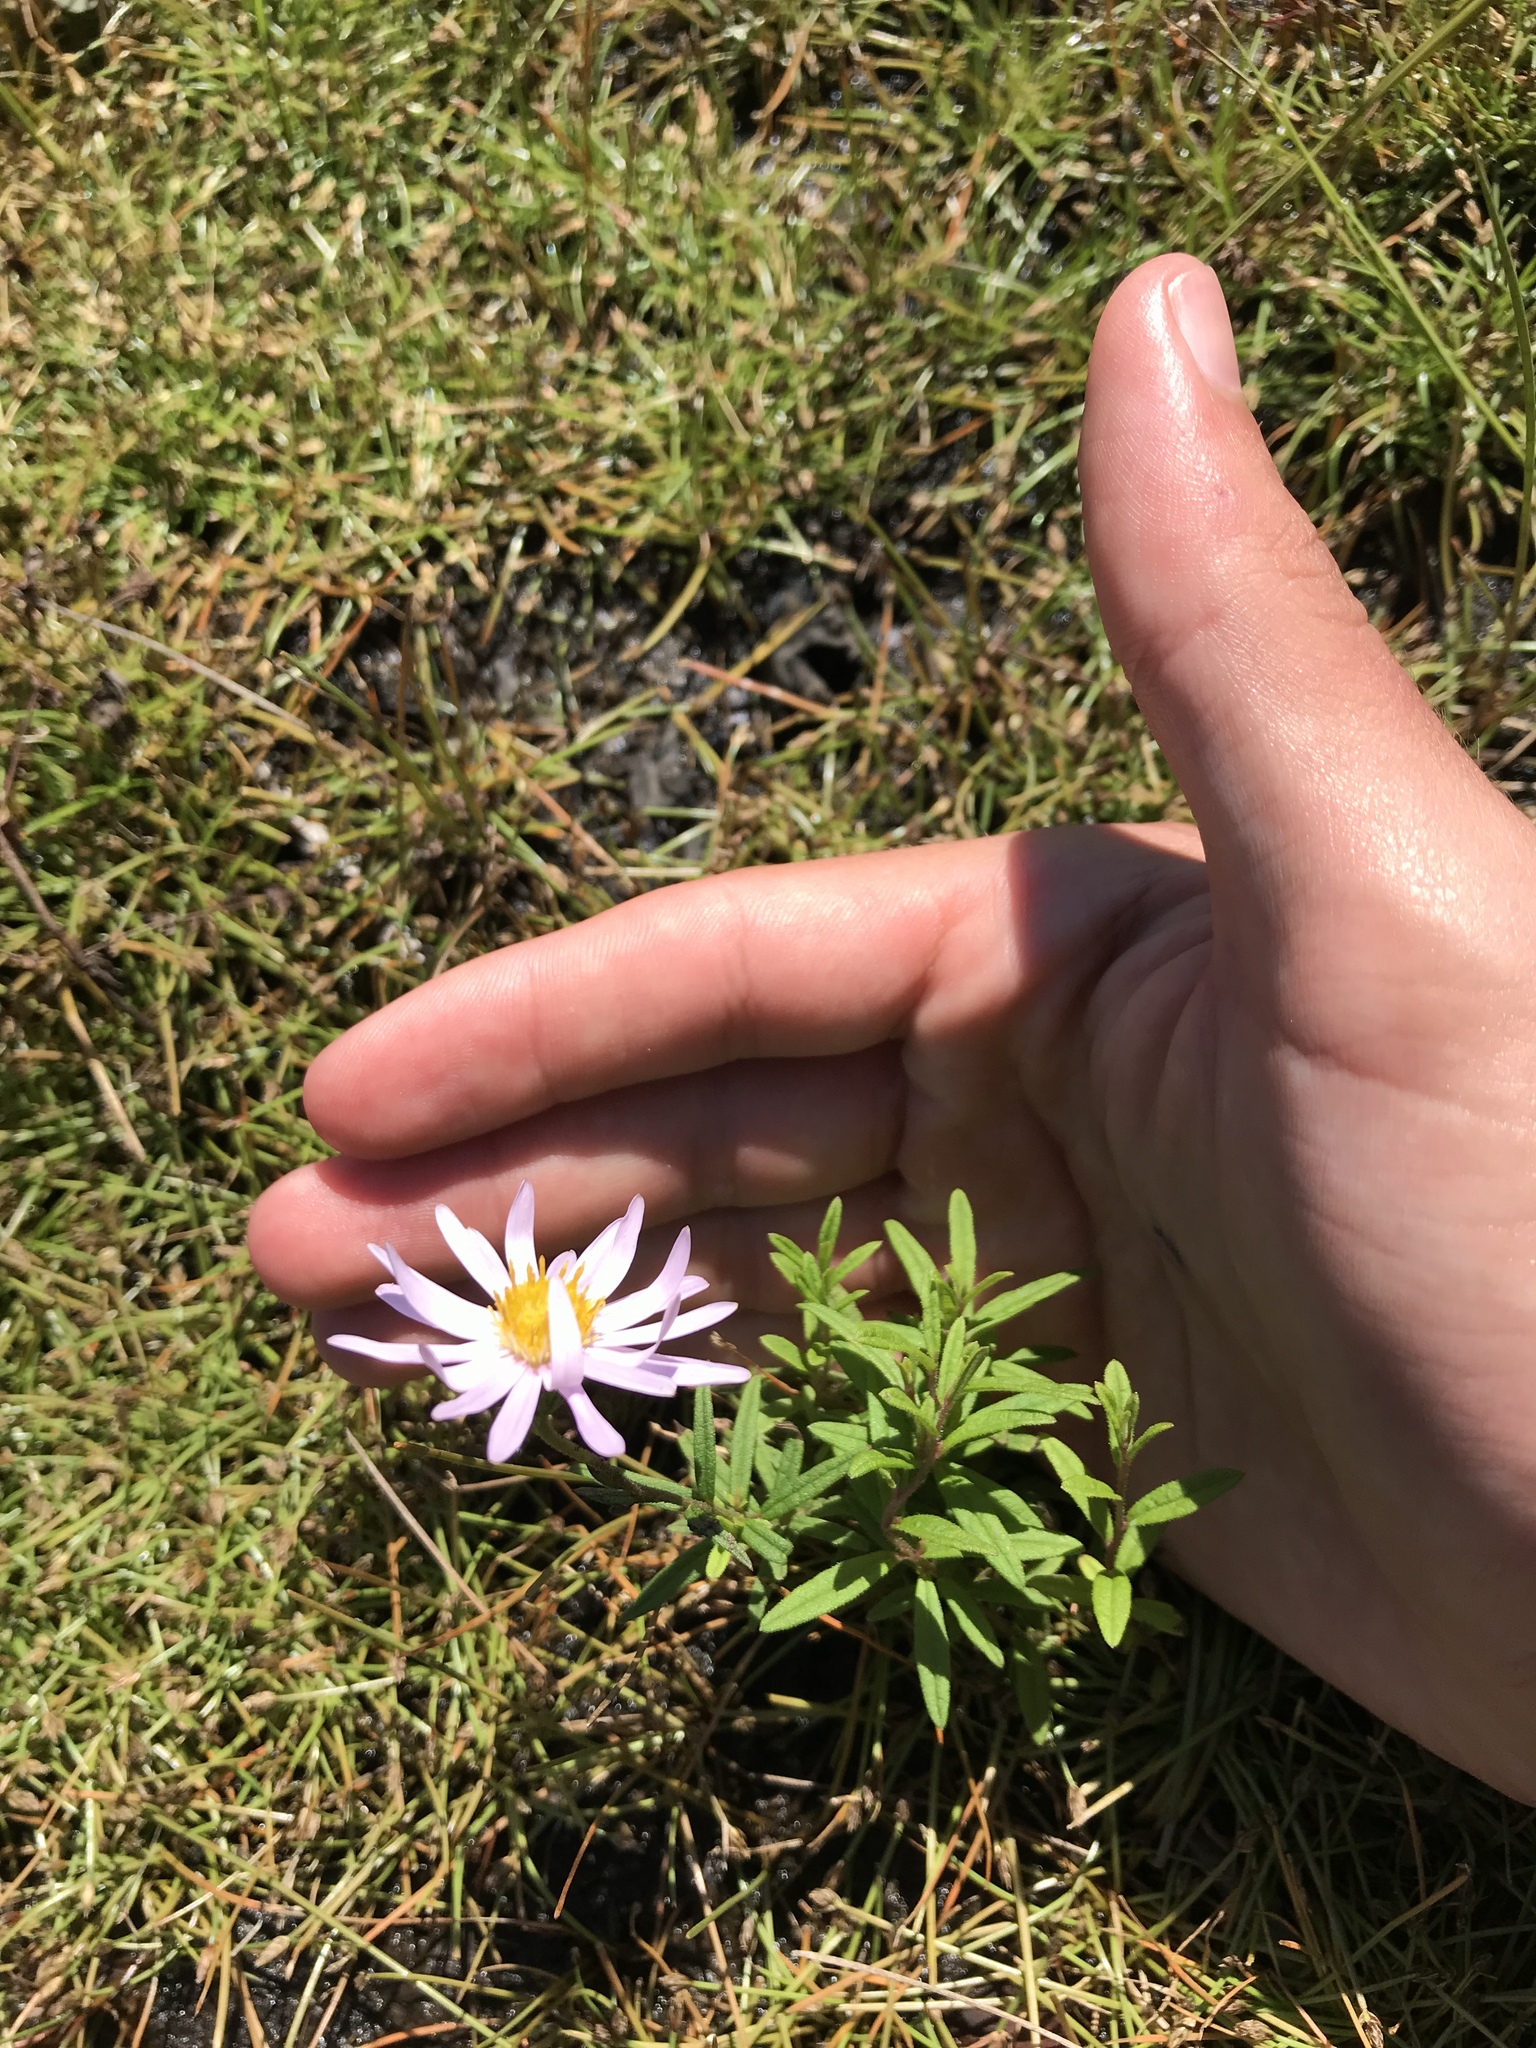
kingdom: Plantae
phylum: Tracheophyta
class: Magnoliopsida
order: Asterales
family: Asteraceae
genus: Oclemena
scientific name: Oclemena nemoralis
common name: Bog aster
